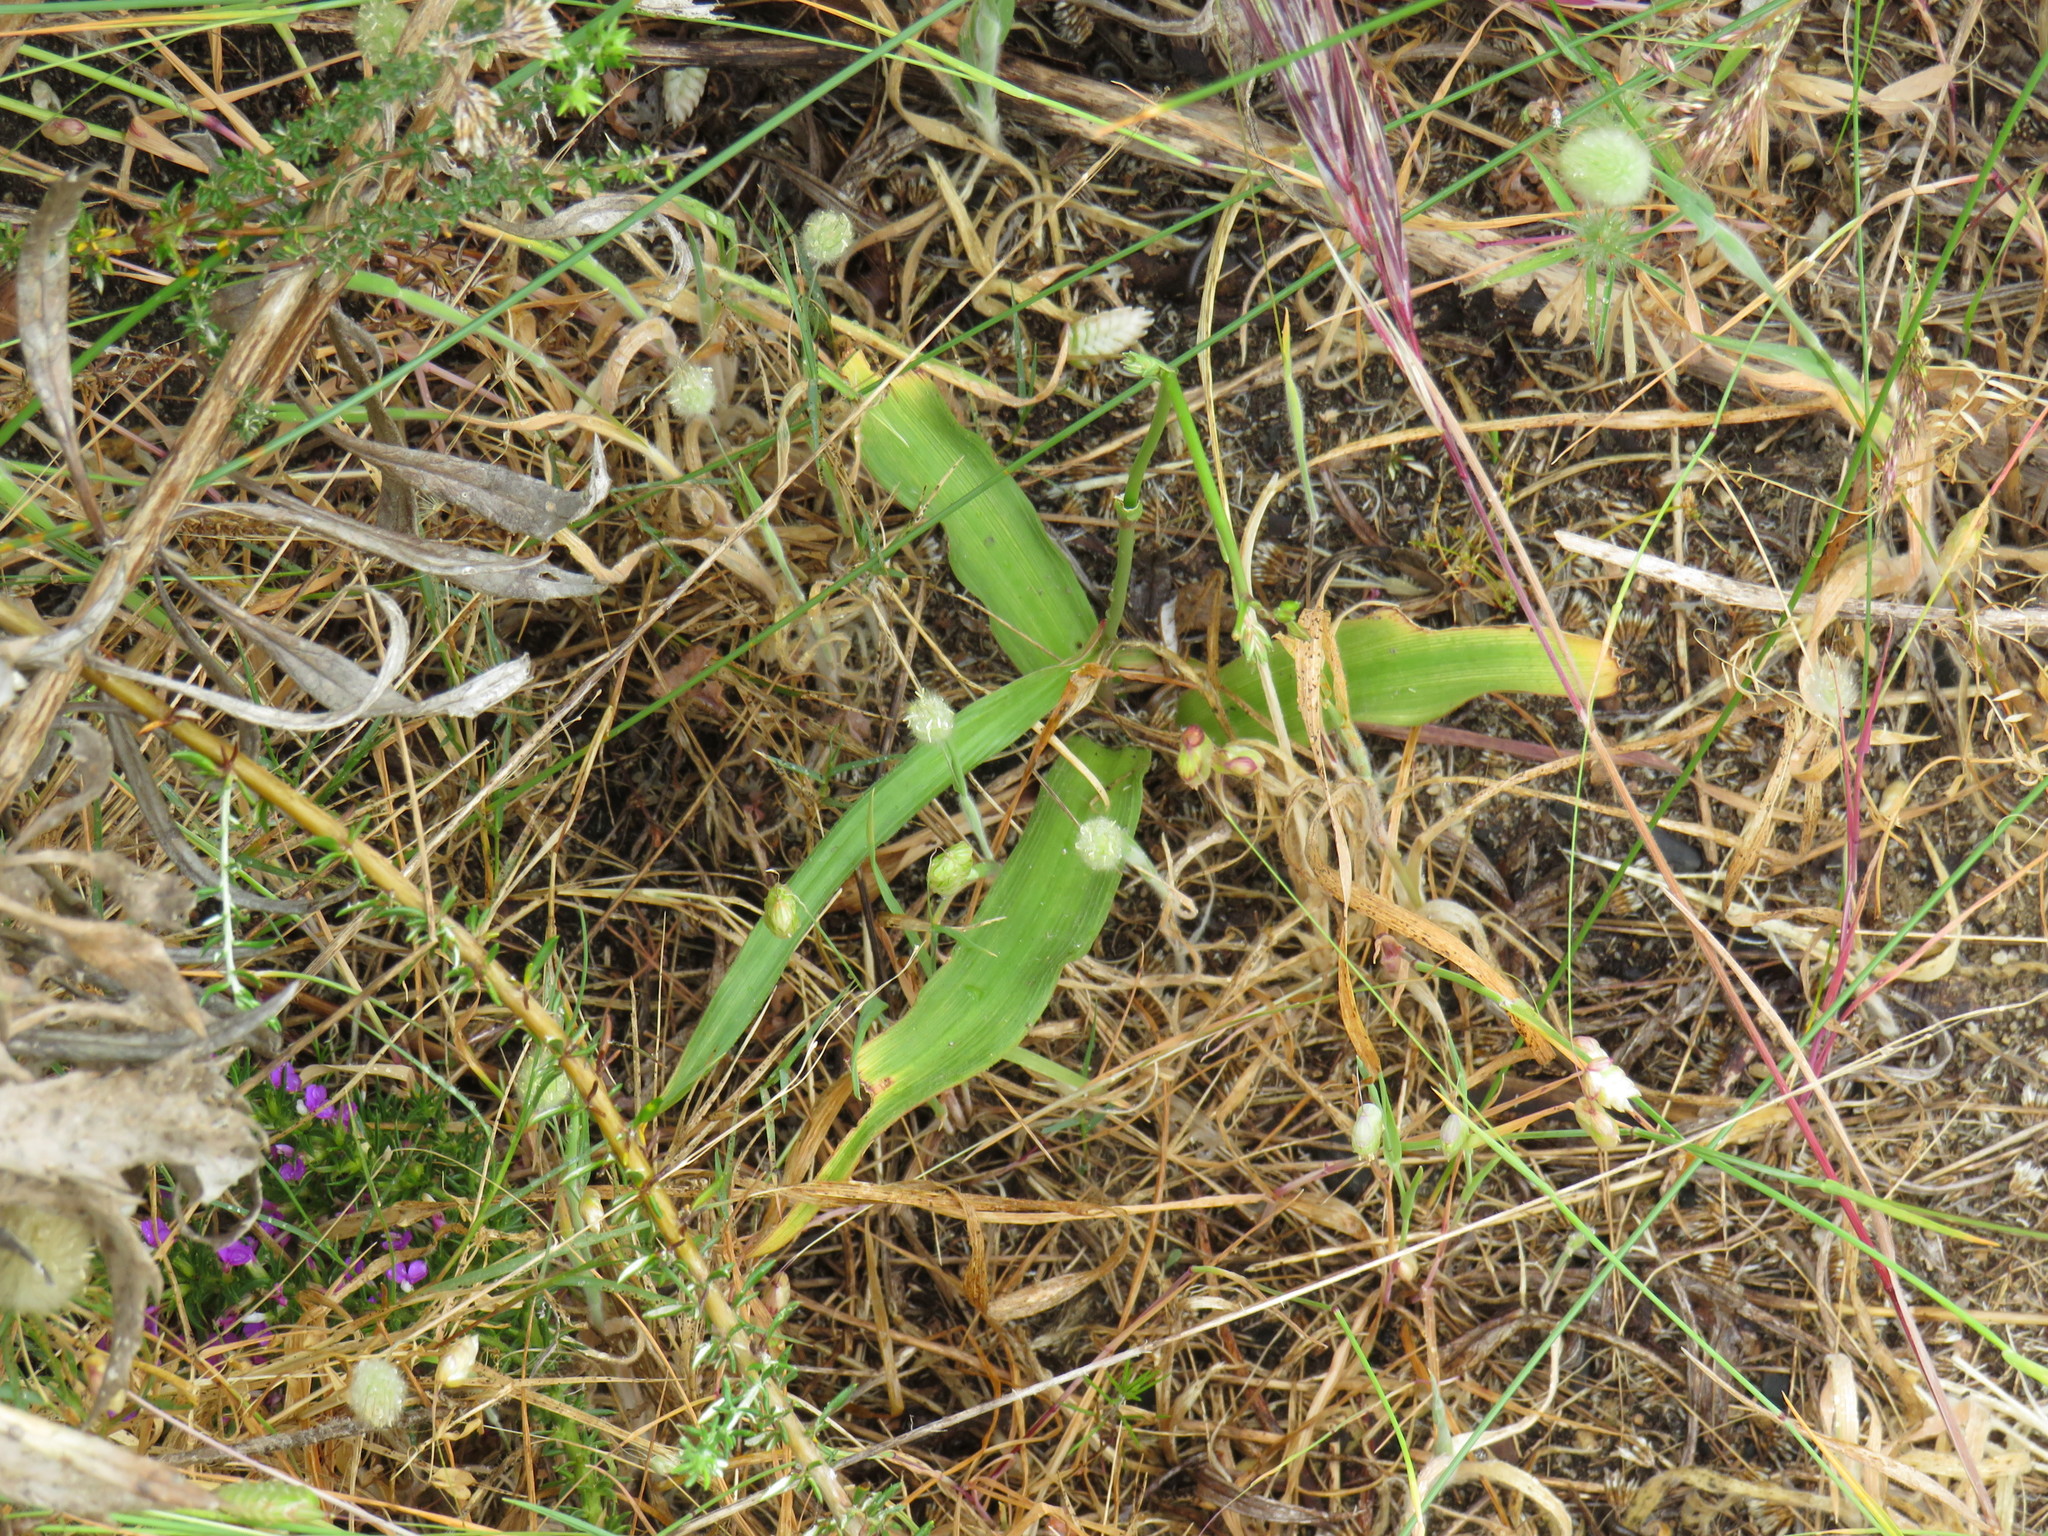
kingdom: Plantae
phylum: Tracheophyta
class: Liliopsida
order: Asparagales
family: Tecophilaeaceae
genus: Cyanella
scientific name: Cyanella hyacinthoides
